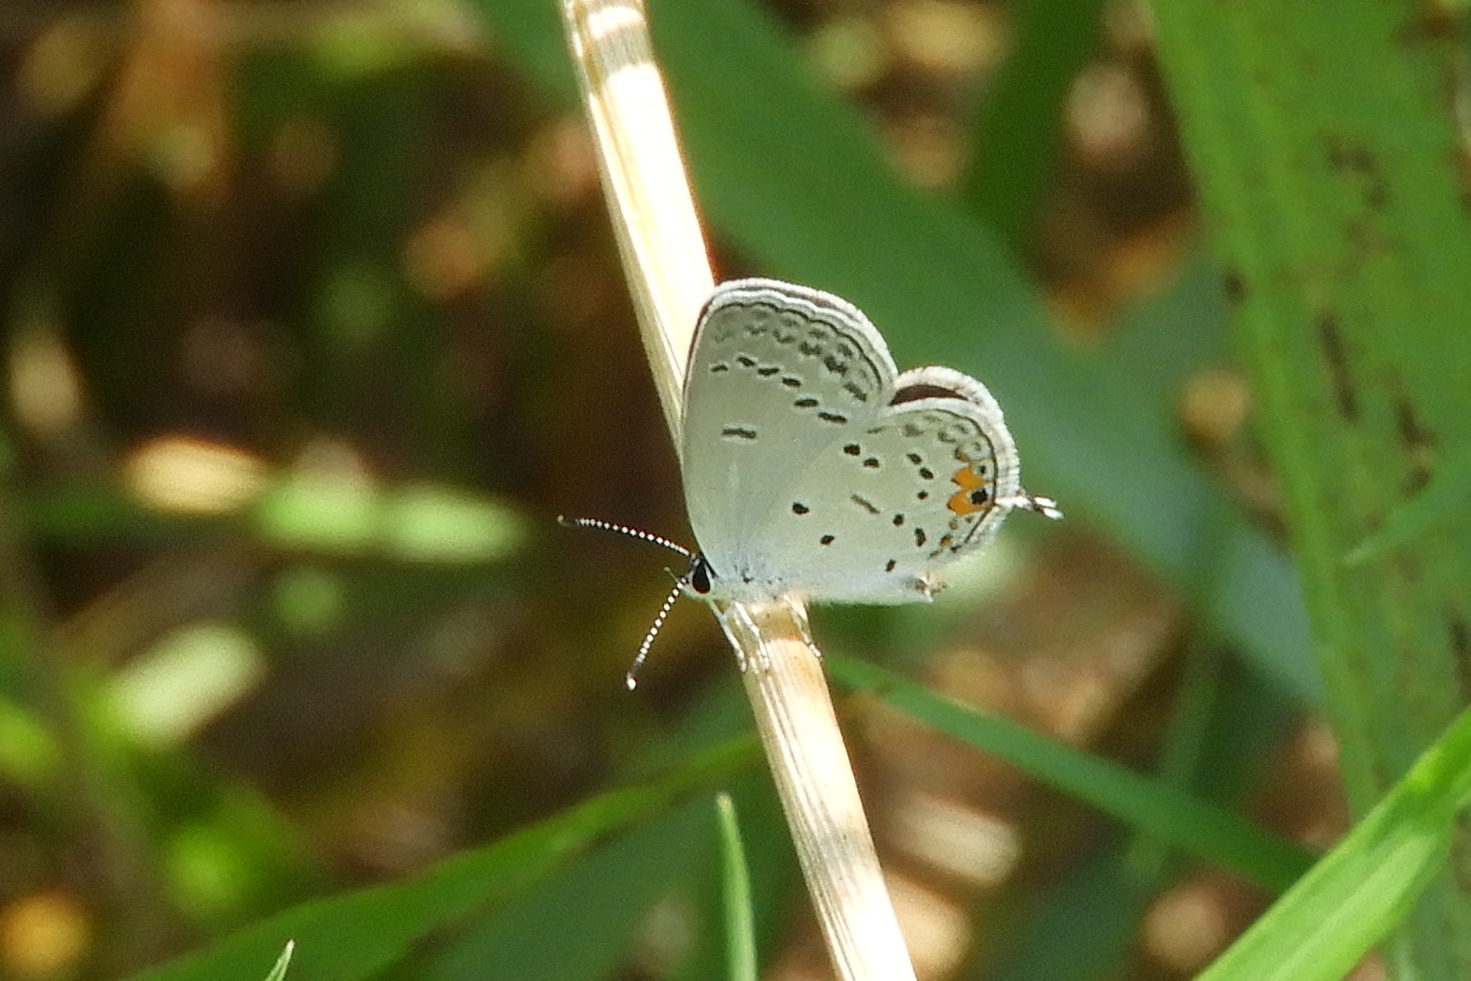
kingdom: Animalia
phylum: Arthropoda
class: Insecta
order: Lepidoptera
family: Lycaenidae
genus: Elkalyce
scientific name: Elkalyce comyntas
